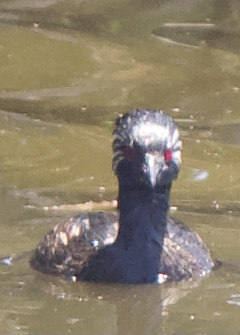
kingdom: Animalia
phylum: Chordata
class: Aves
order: Podicipediformes
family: Podicipedidae
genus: Rollandia
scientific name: Rollandia rolland
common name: White-tufted grebe
